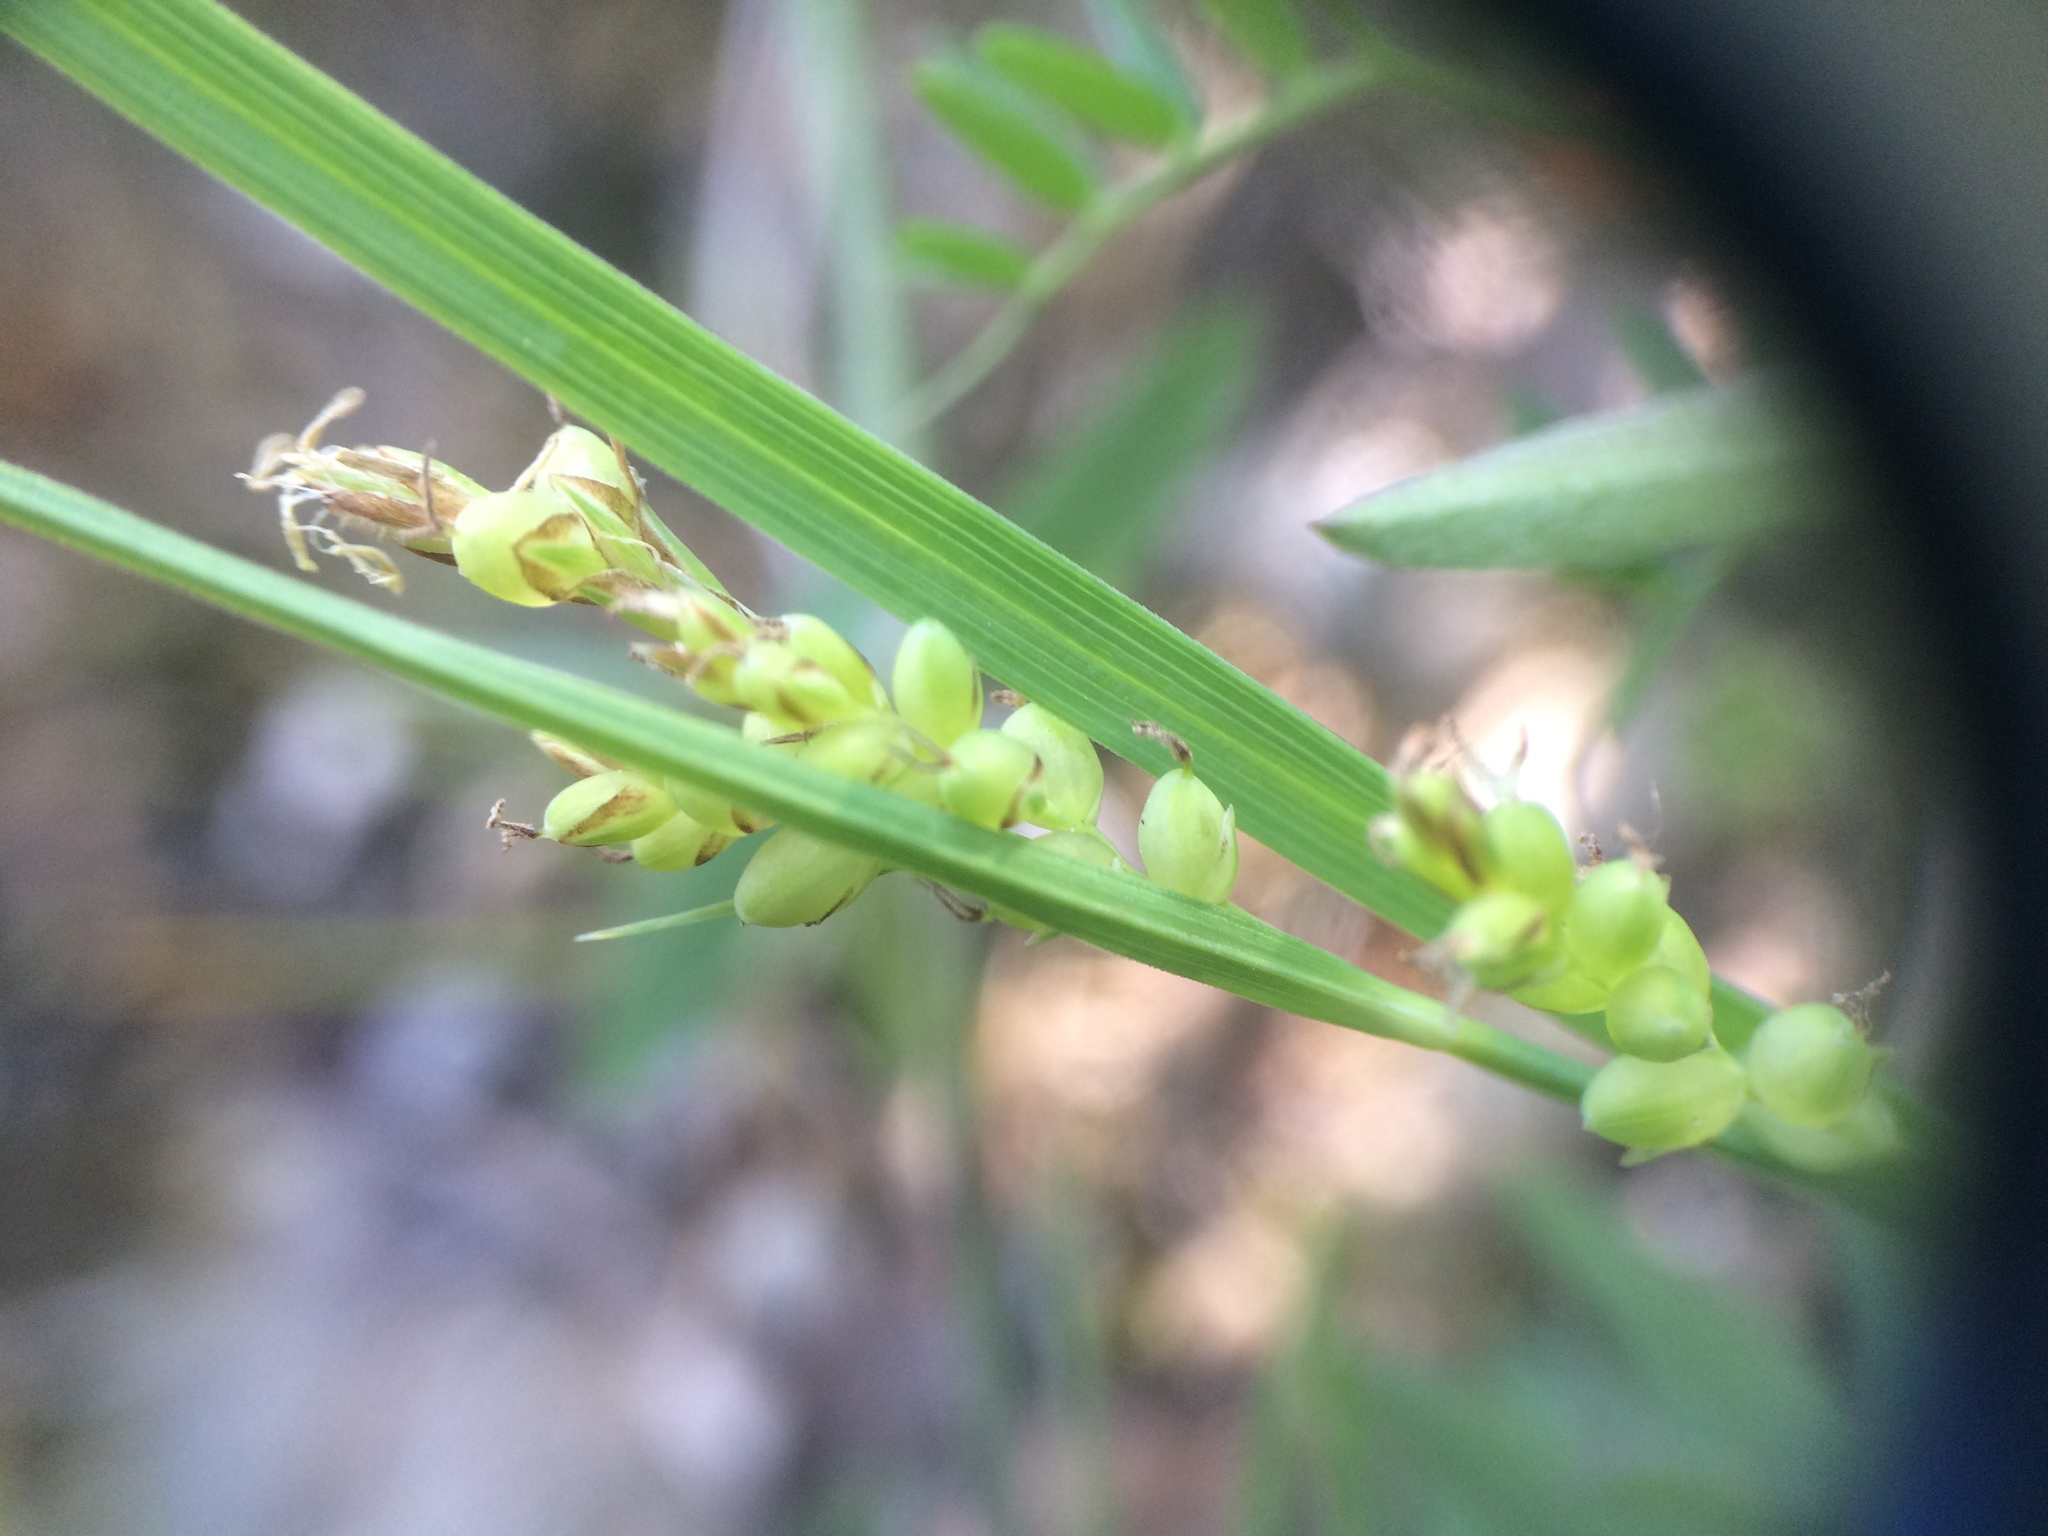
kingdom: Plantae
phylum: Tracheophyta
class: Liliopsida
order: Poales
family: Cyperaceae
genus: Carex
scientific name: Carex aurea
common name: Golden sedge
